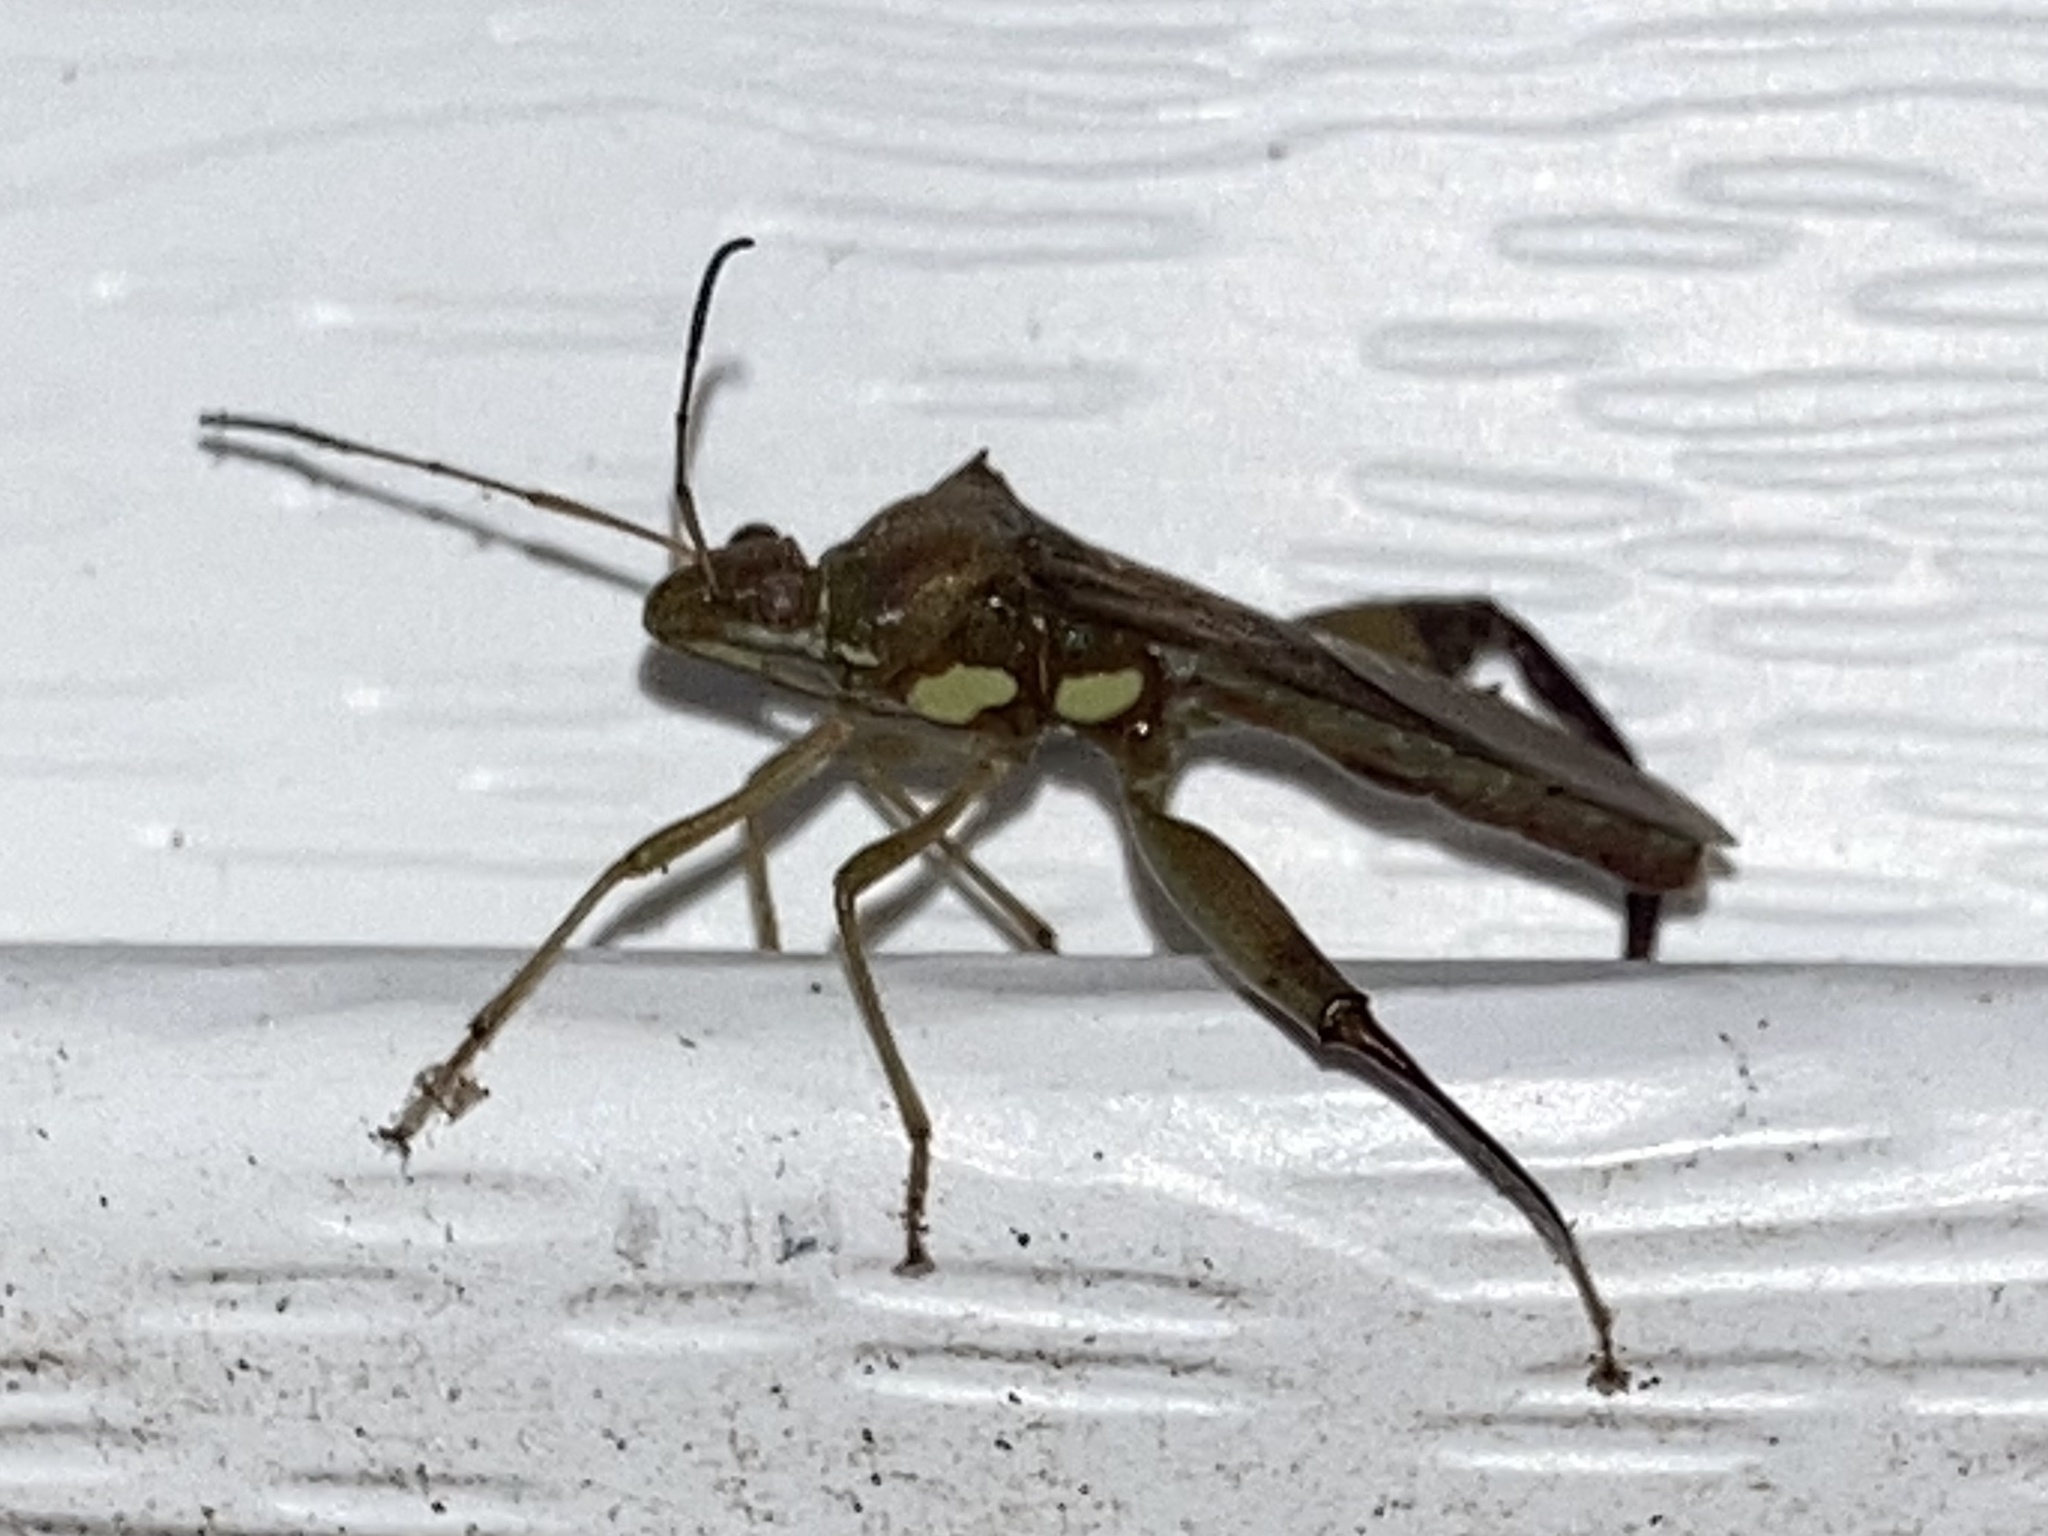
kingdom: Animalia
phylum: Arthropoda
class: Insecta
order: Hemiptera
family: Alydidae
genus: Hyalymenus
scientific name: Hyalymenus tarsatus
